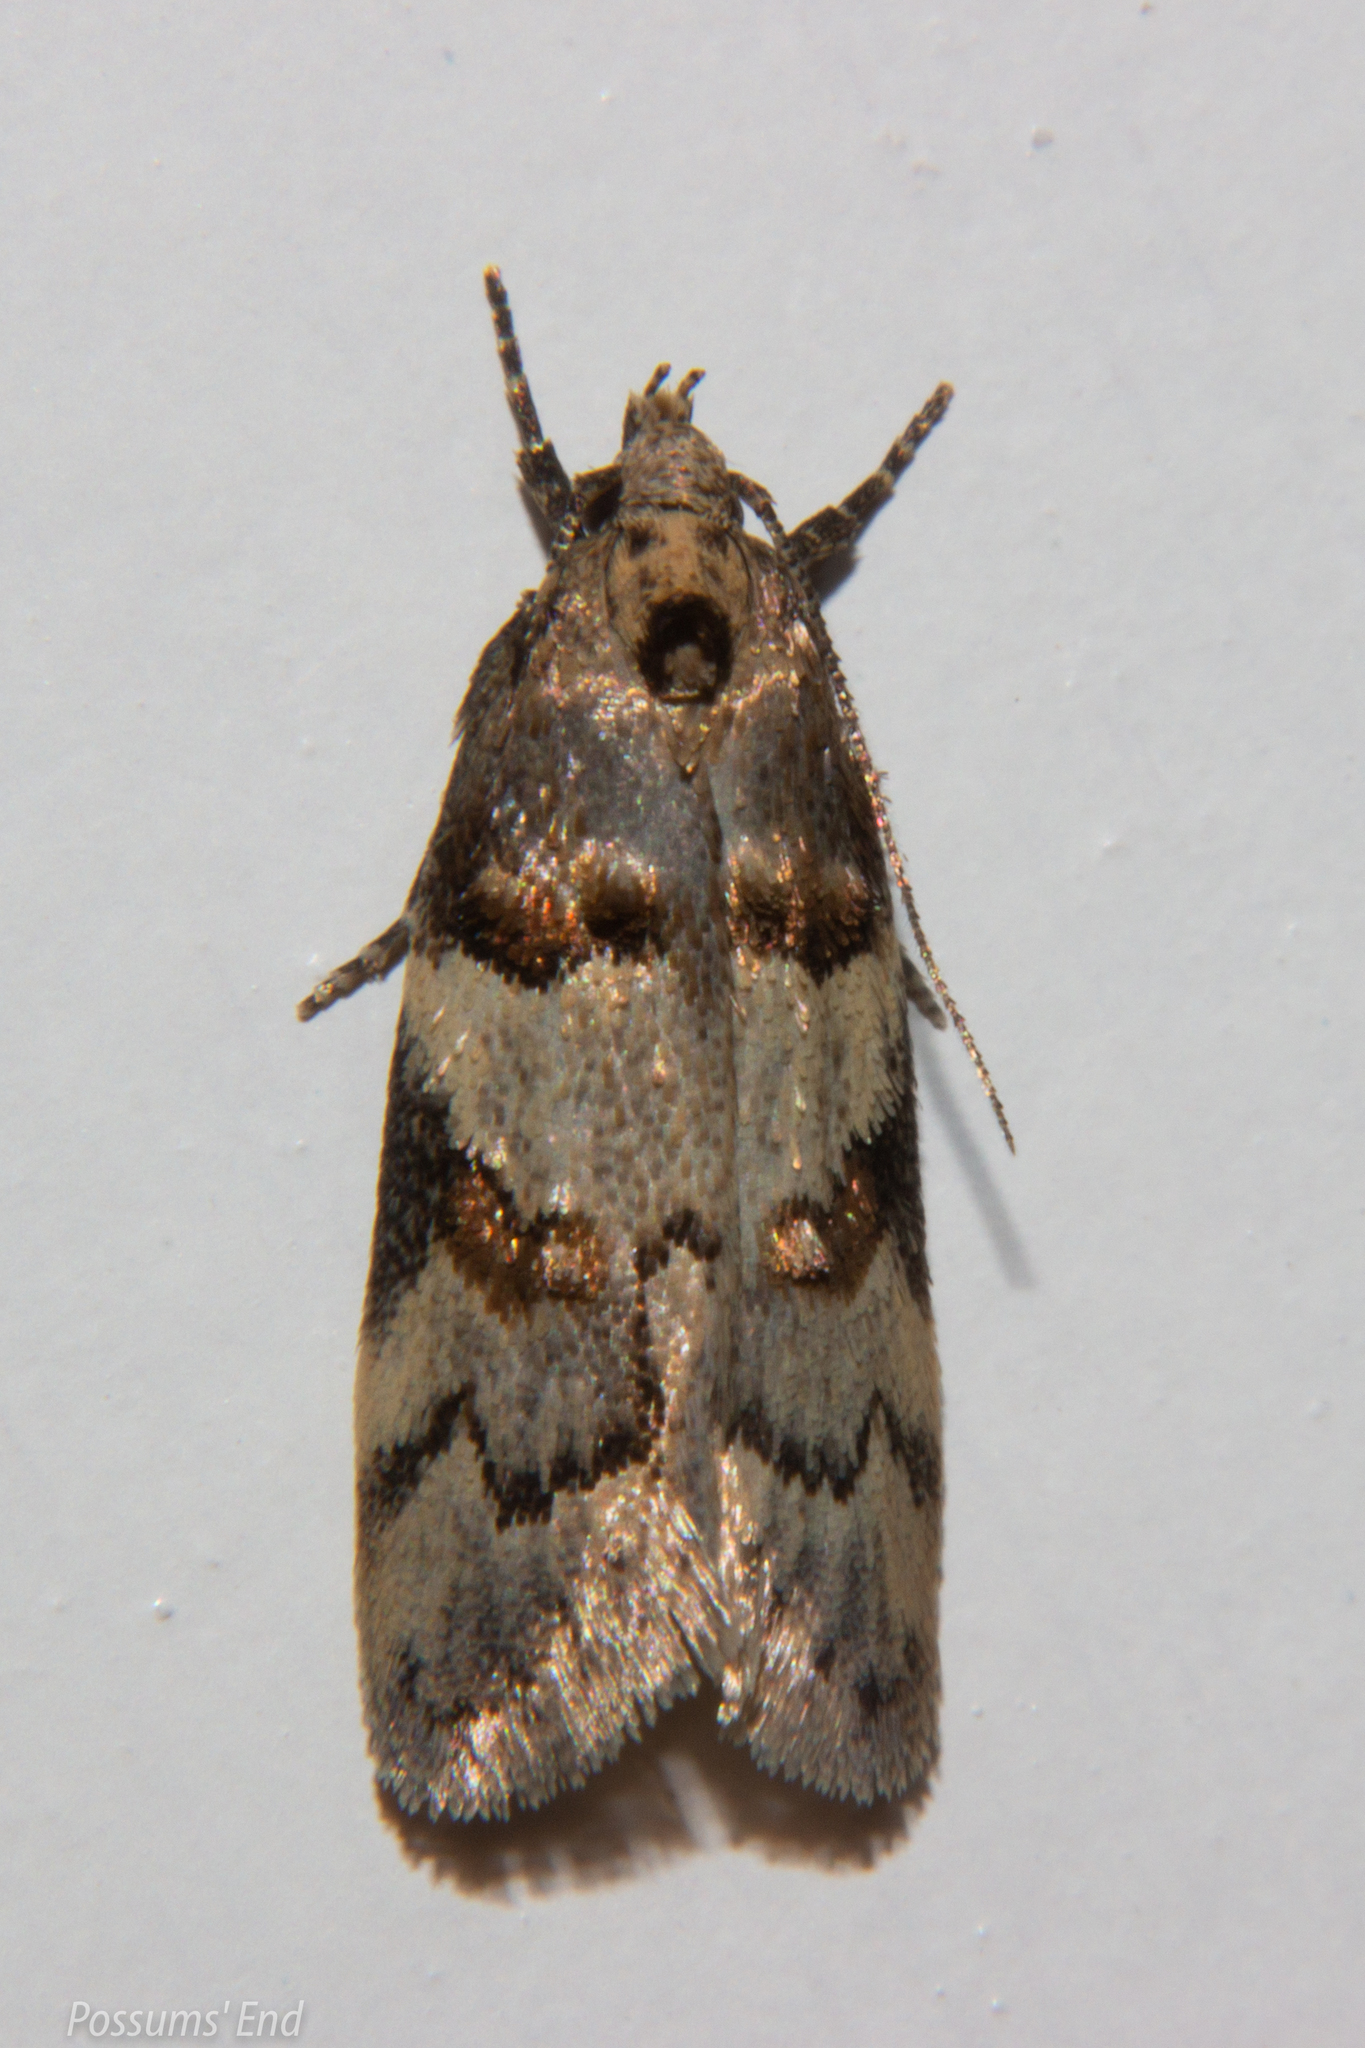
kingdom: Animalia
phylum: Arthropoda
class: Insecta
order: Lepidoptera
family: Oecophoridae
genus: Trachypepla
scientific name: Trachypepla contritella
